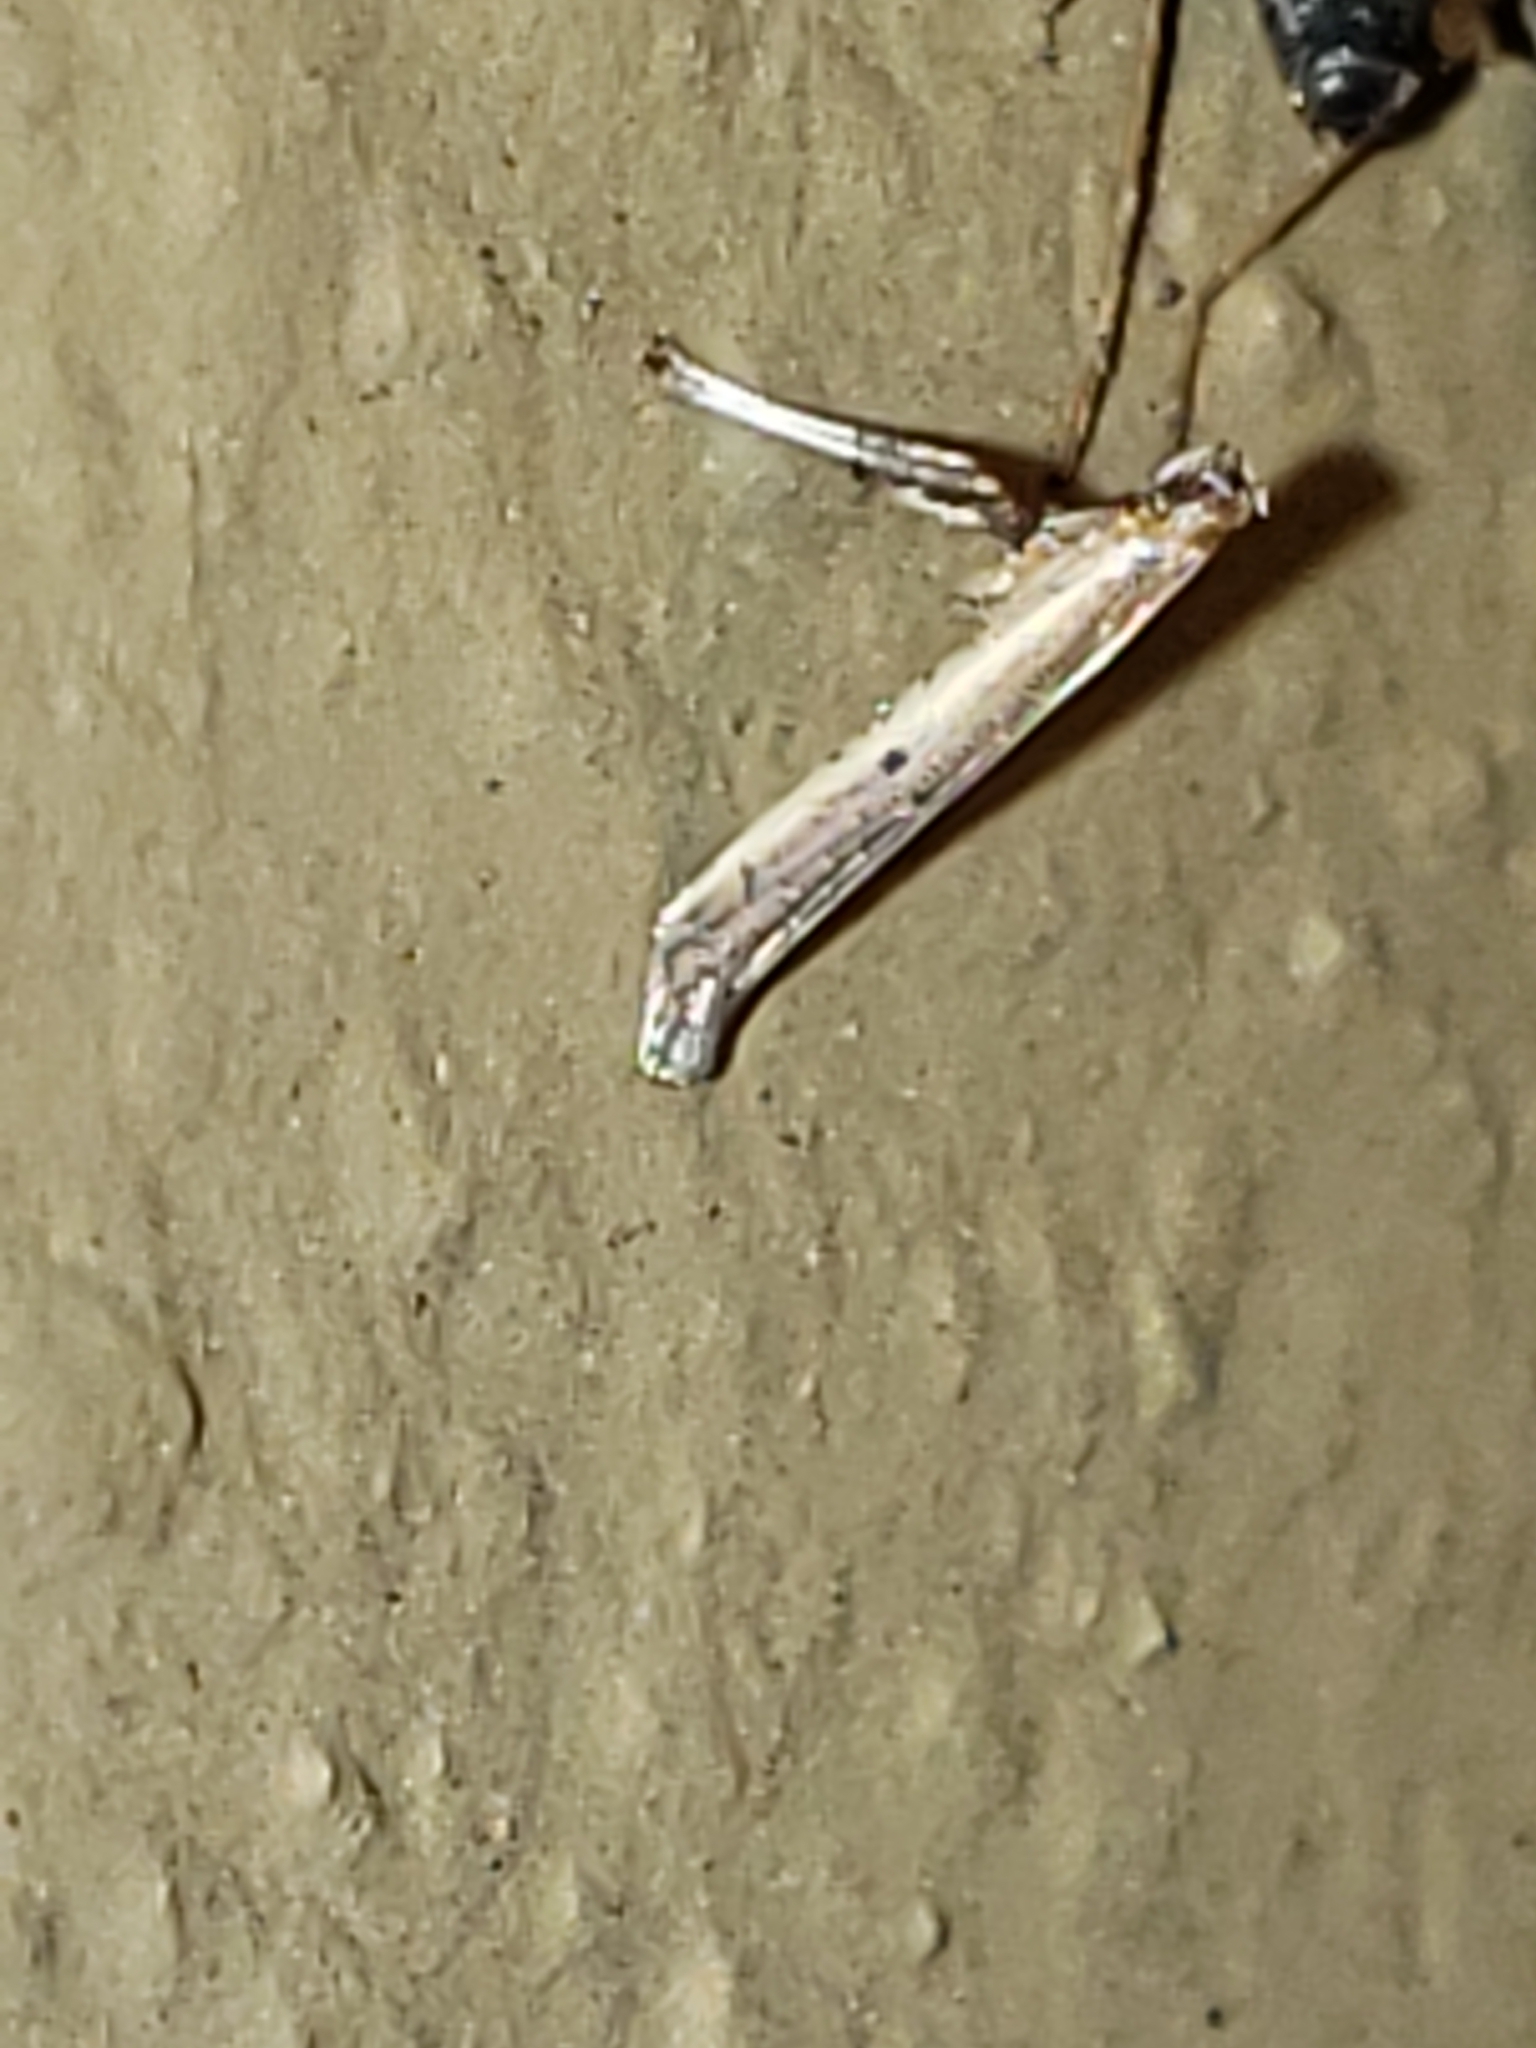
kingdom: Animalia
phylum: Arthropoda
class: Insecta
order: Lepidoptera
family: Gracillariidae
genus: Caloptilia
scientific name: Caloptilia violacella
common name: Tick-trefoil caloptilia moth
